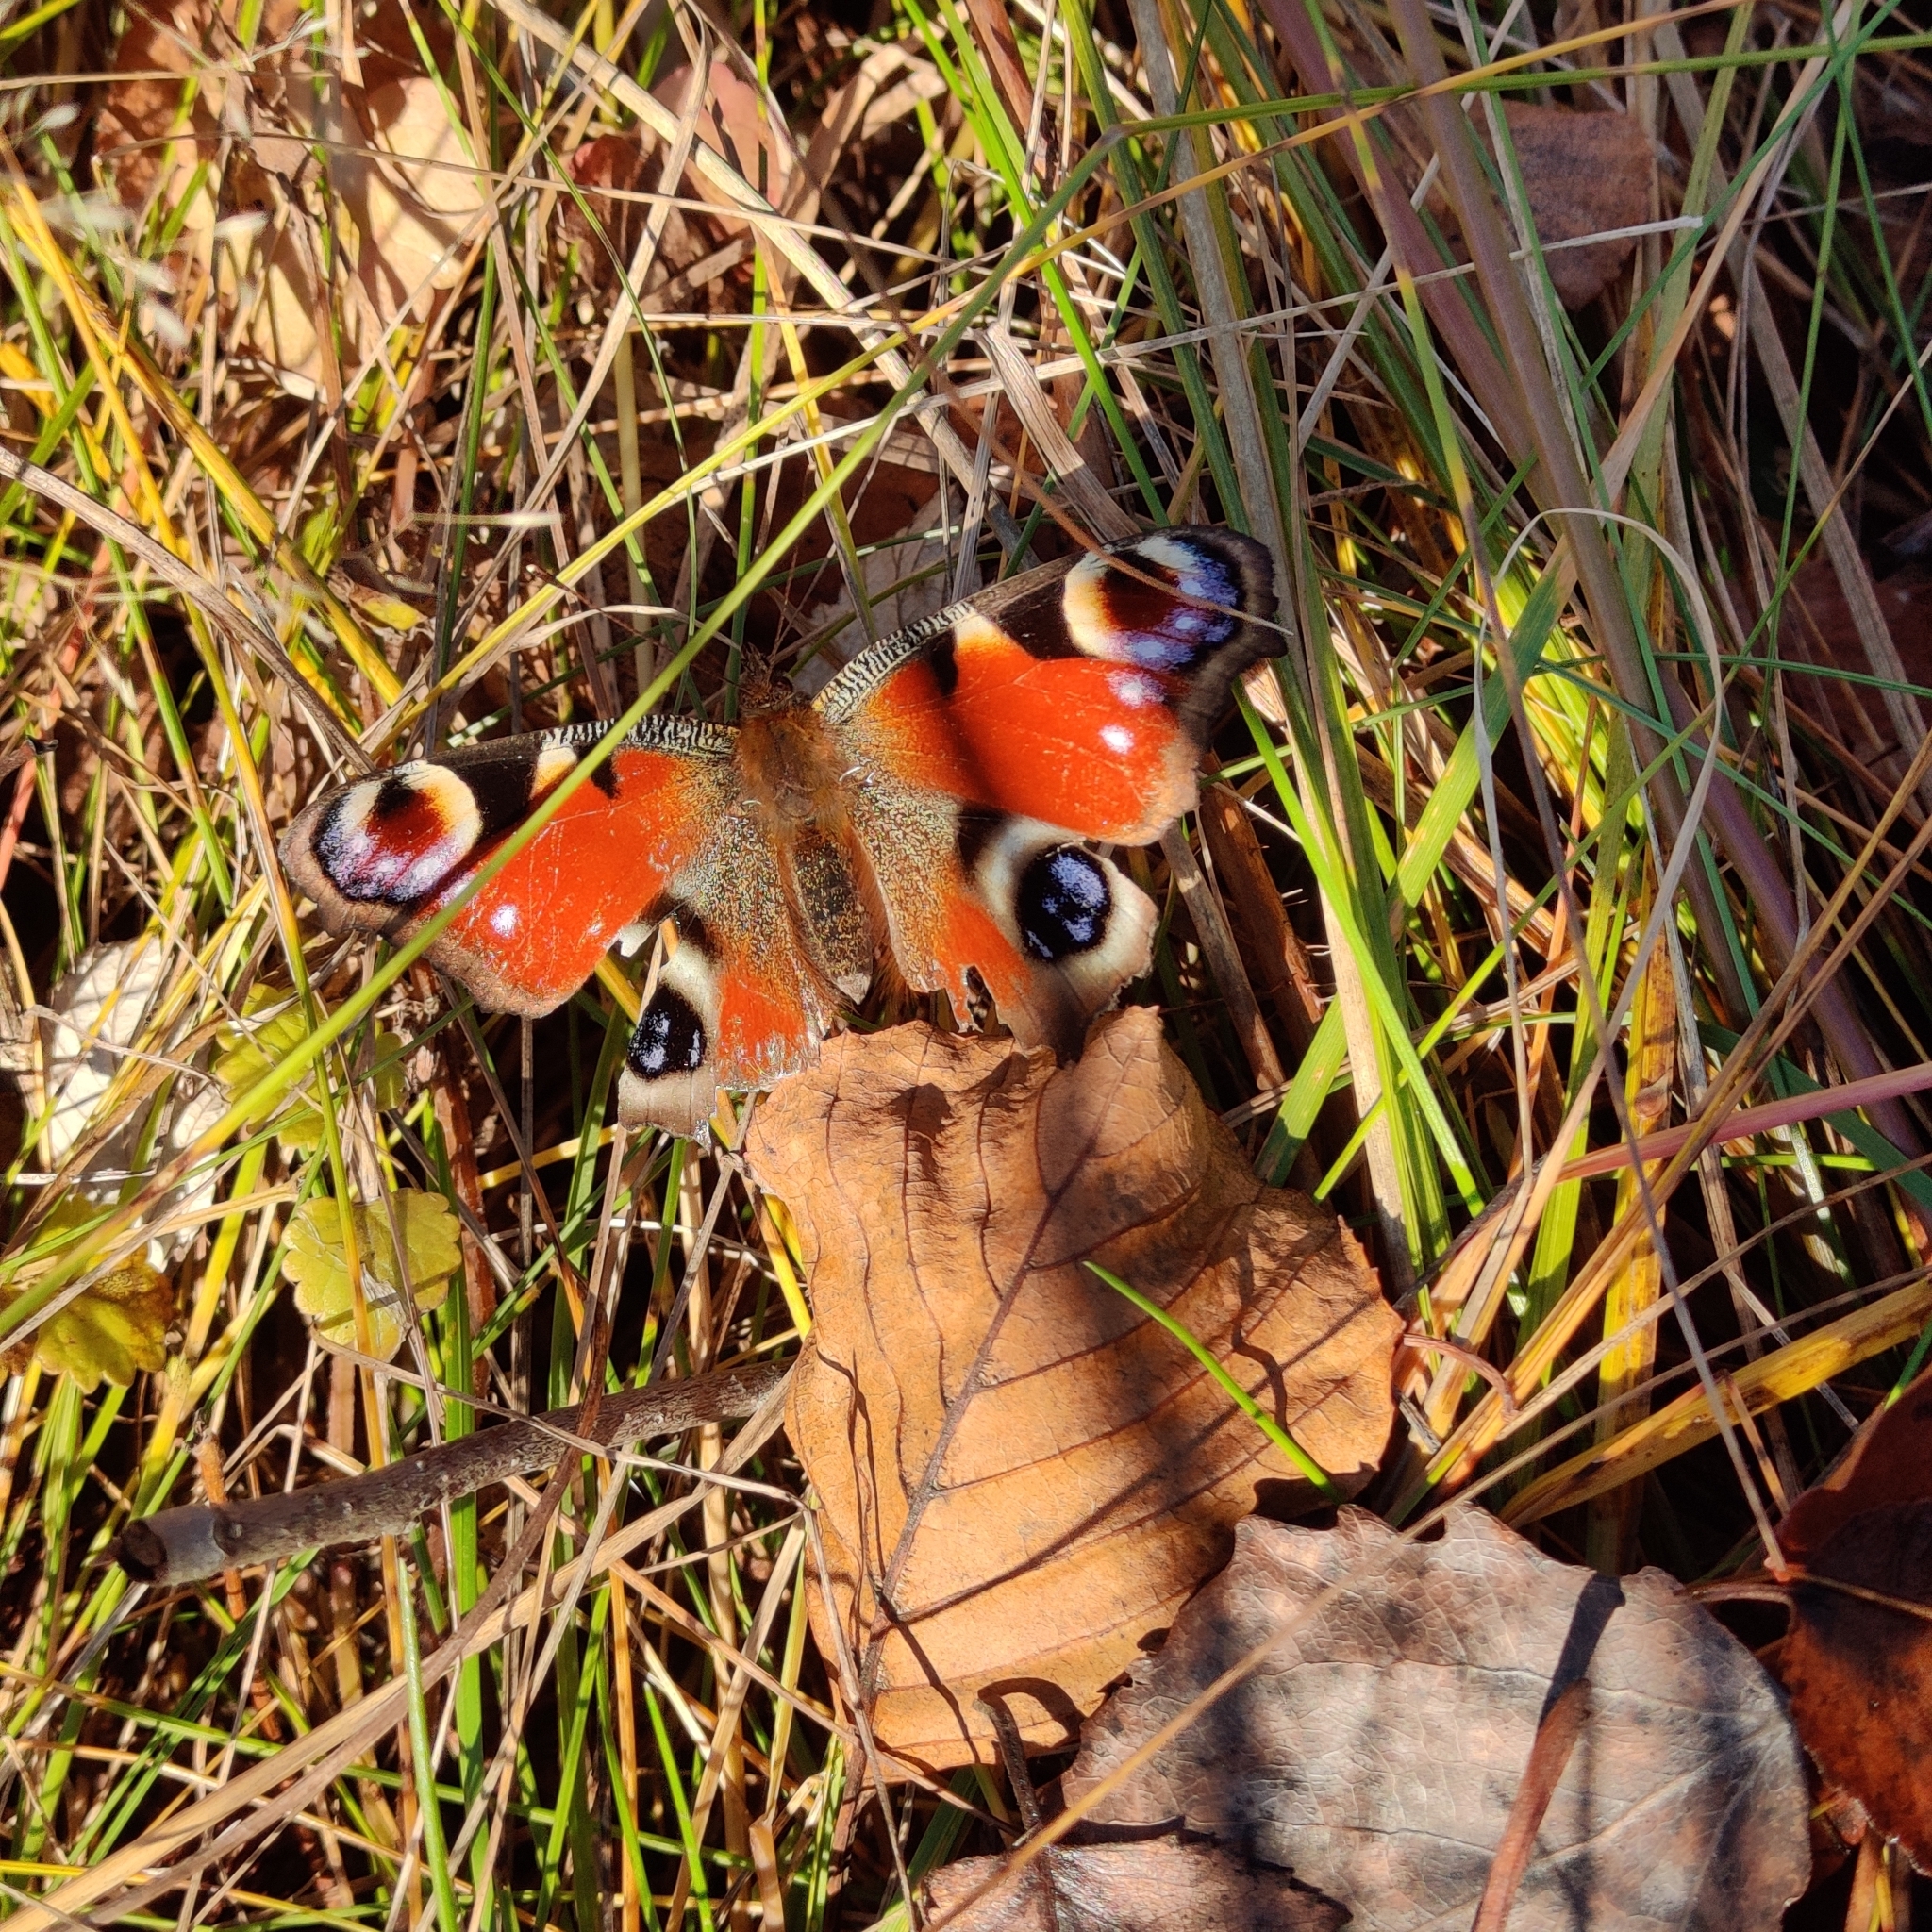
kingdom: Animalia
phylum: Arthropoda
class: Insecta
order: Lepidoptera
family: Nymphalidae
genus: Aglais
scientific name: Aglais io
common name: Peacock
